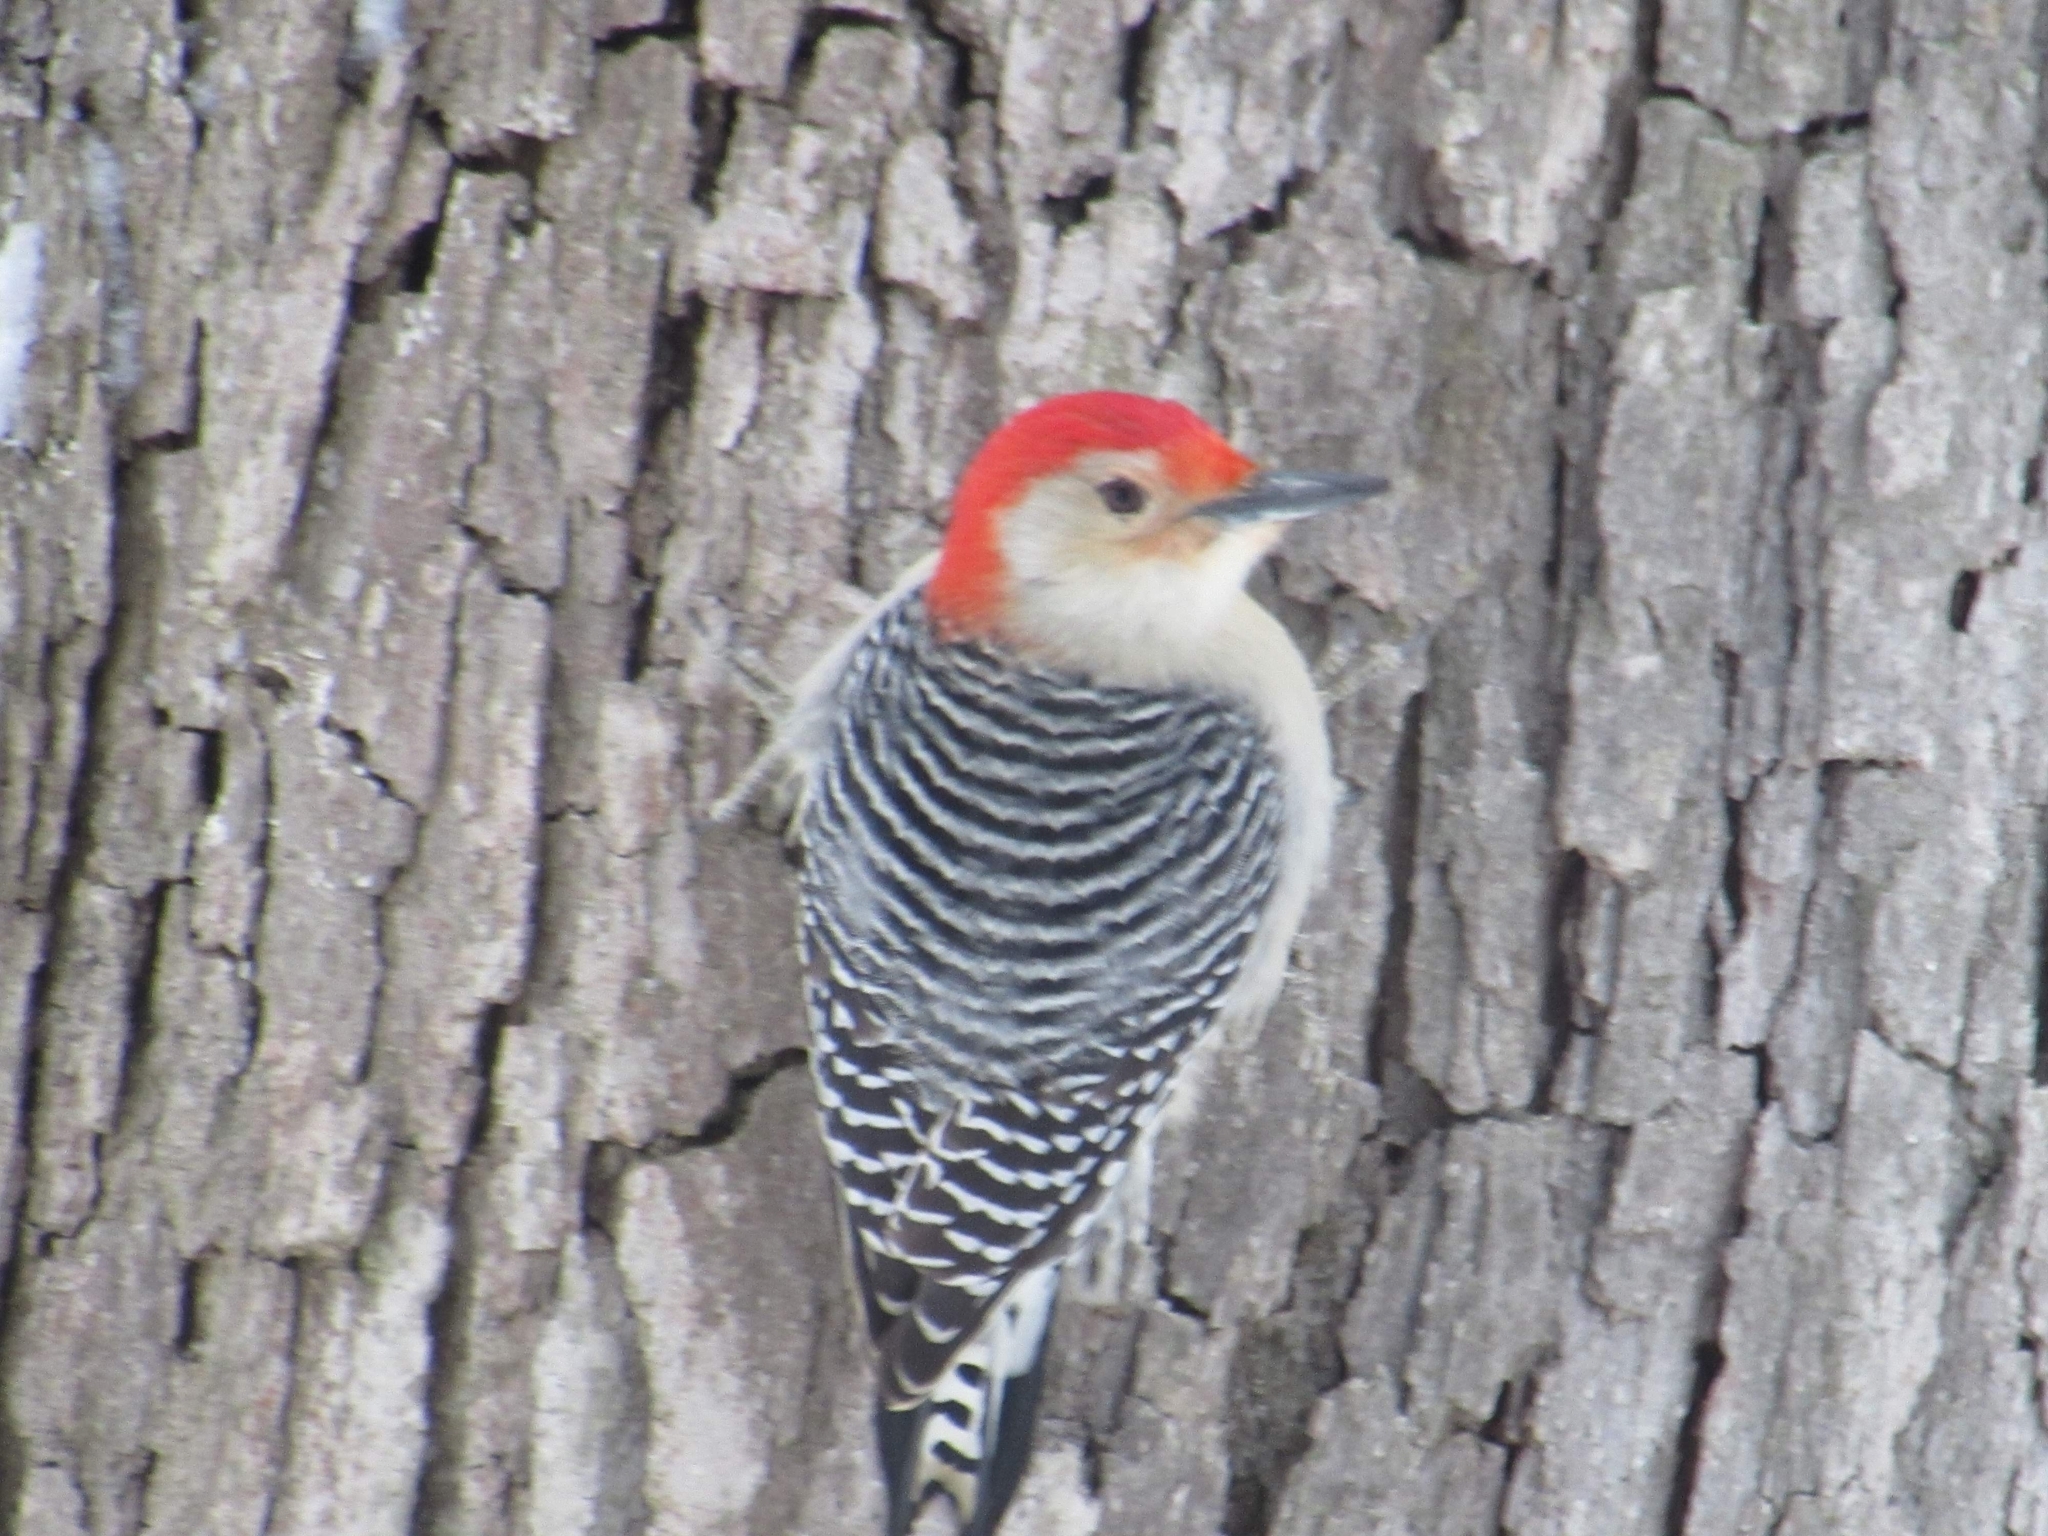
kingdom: Animalia
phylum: Chordata
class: Aves
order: Piciformes
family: Picidae
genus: Melanerpes
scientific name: Melanerpes carolinus
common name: Red-bellied woodpecker
